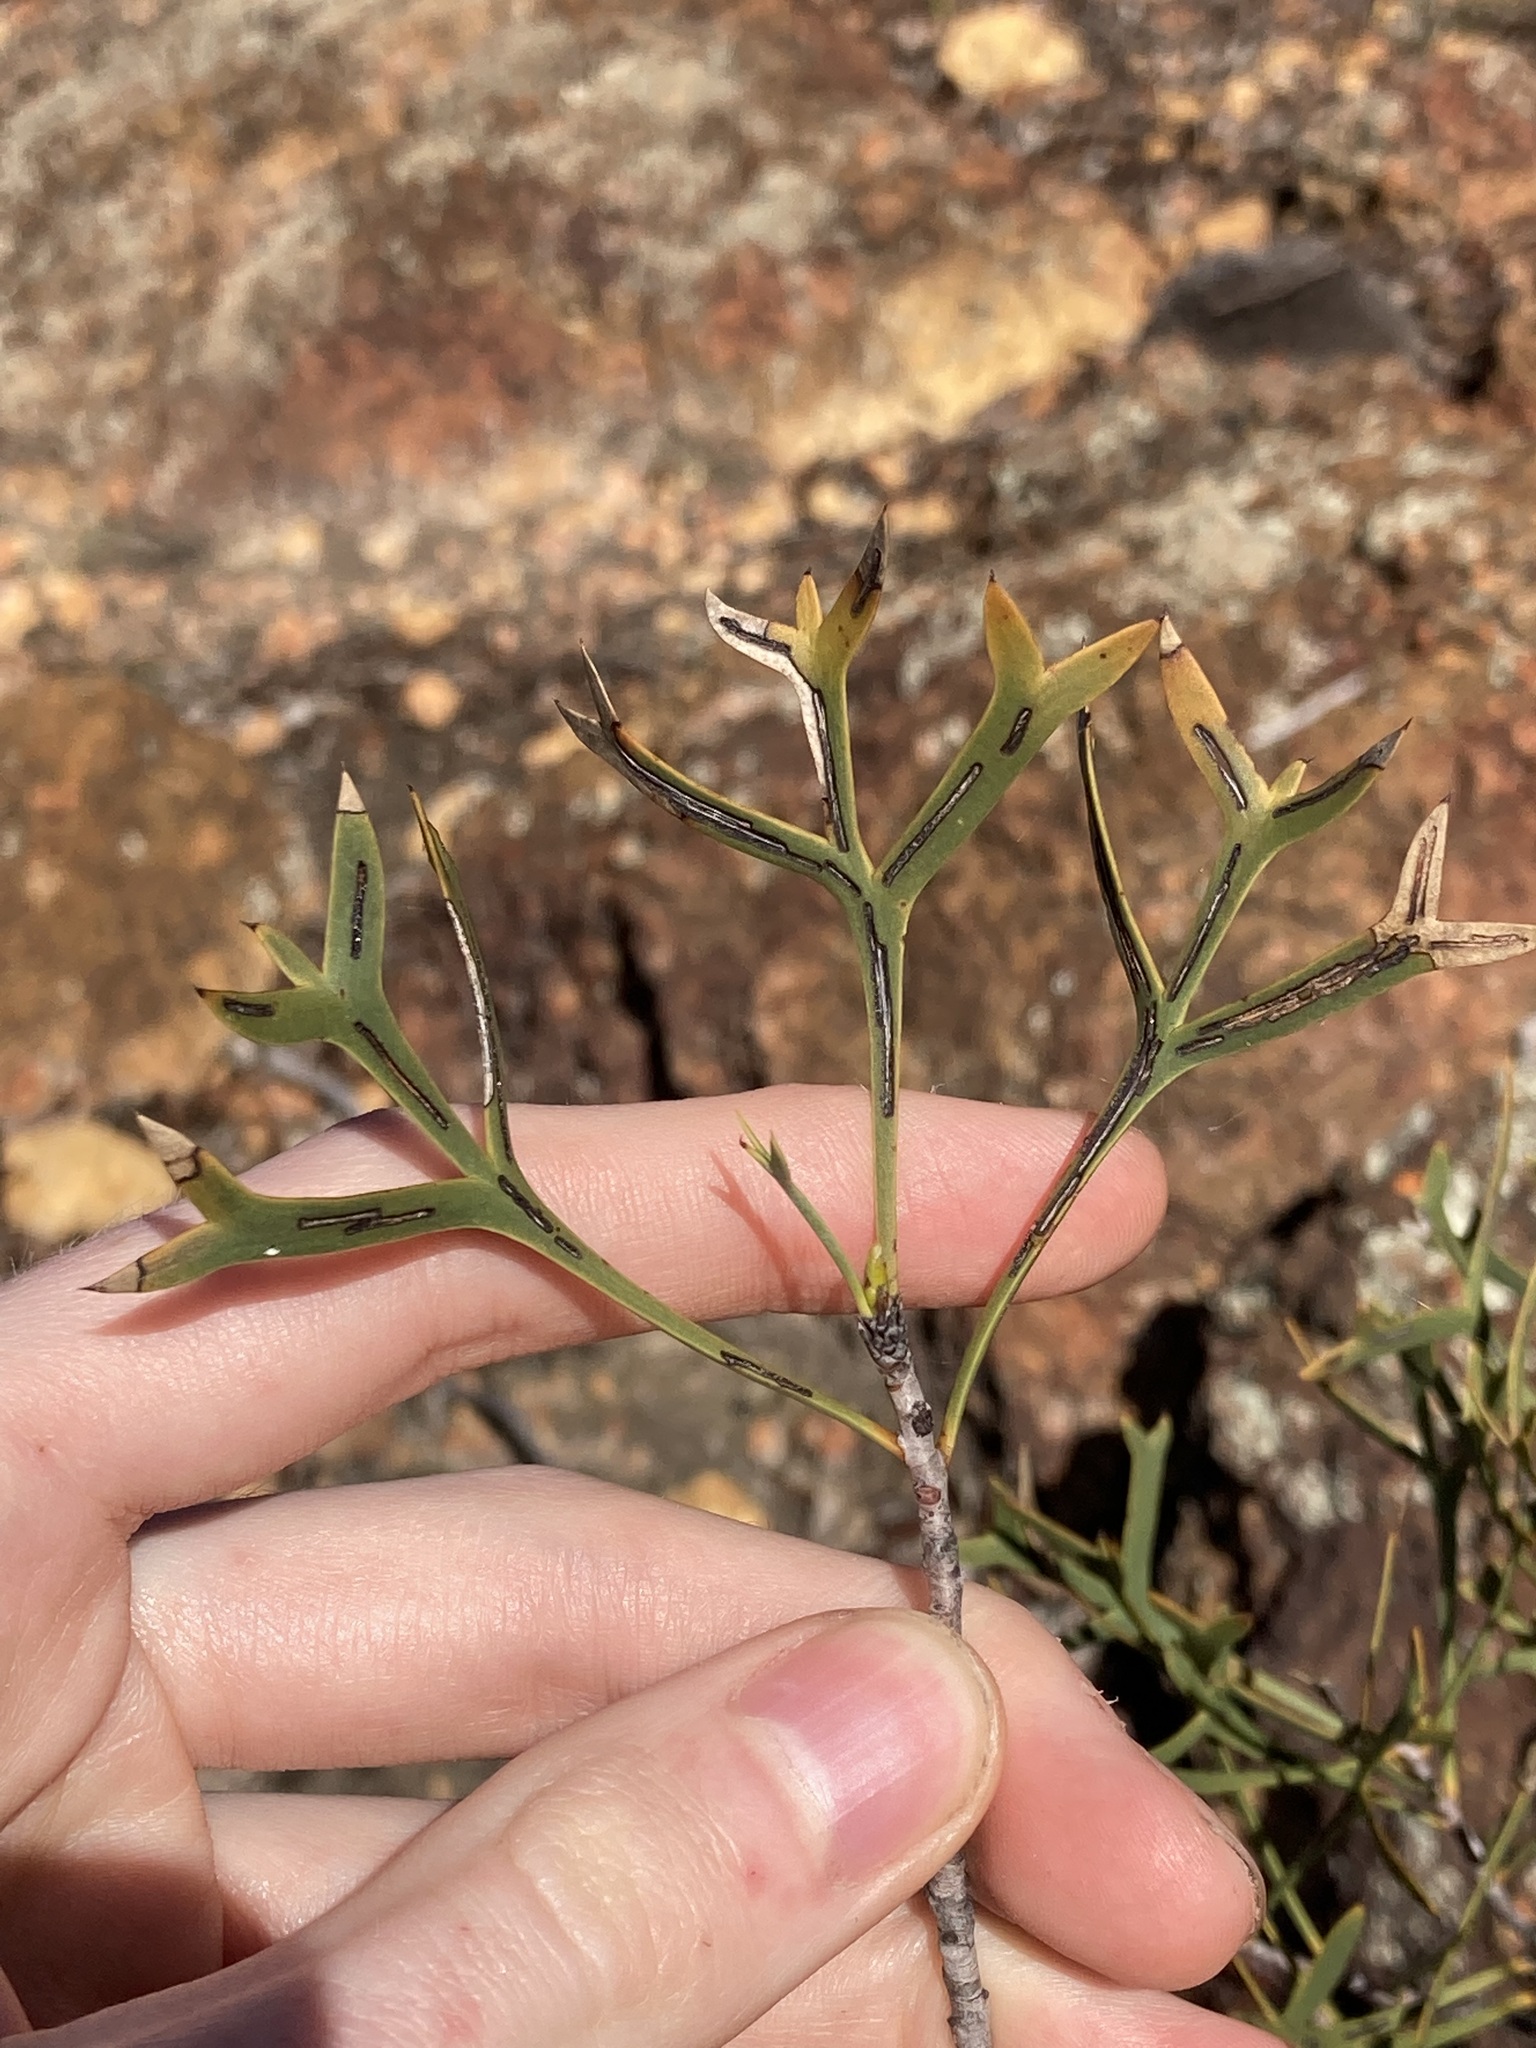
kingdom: Plantae
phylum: Tracheophyta
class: Magnoliopsida
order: Proteales
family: Proteaceae
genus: Petrophile
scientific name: Petrophile shuttleworthiana
